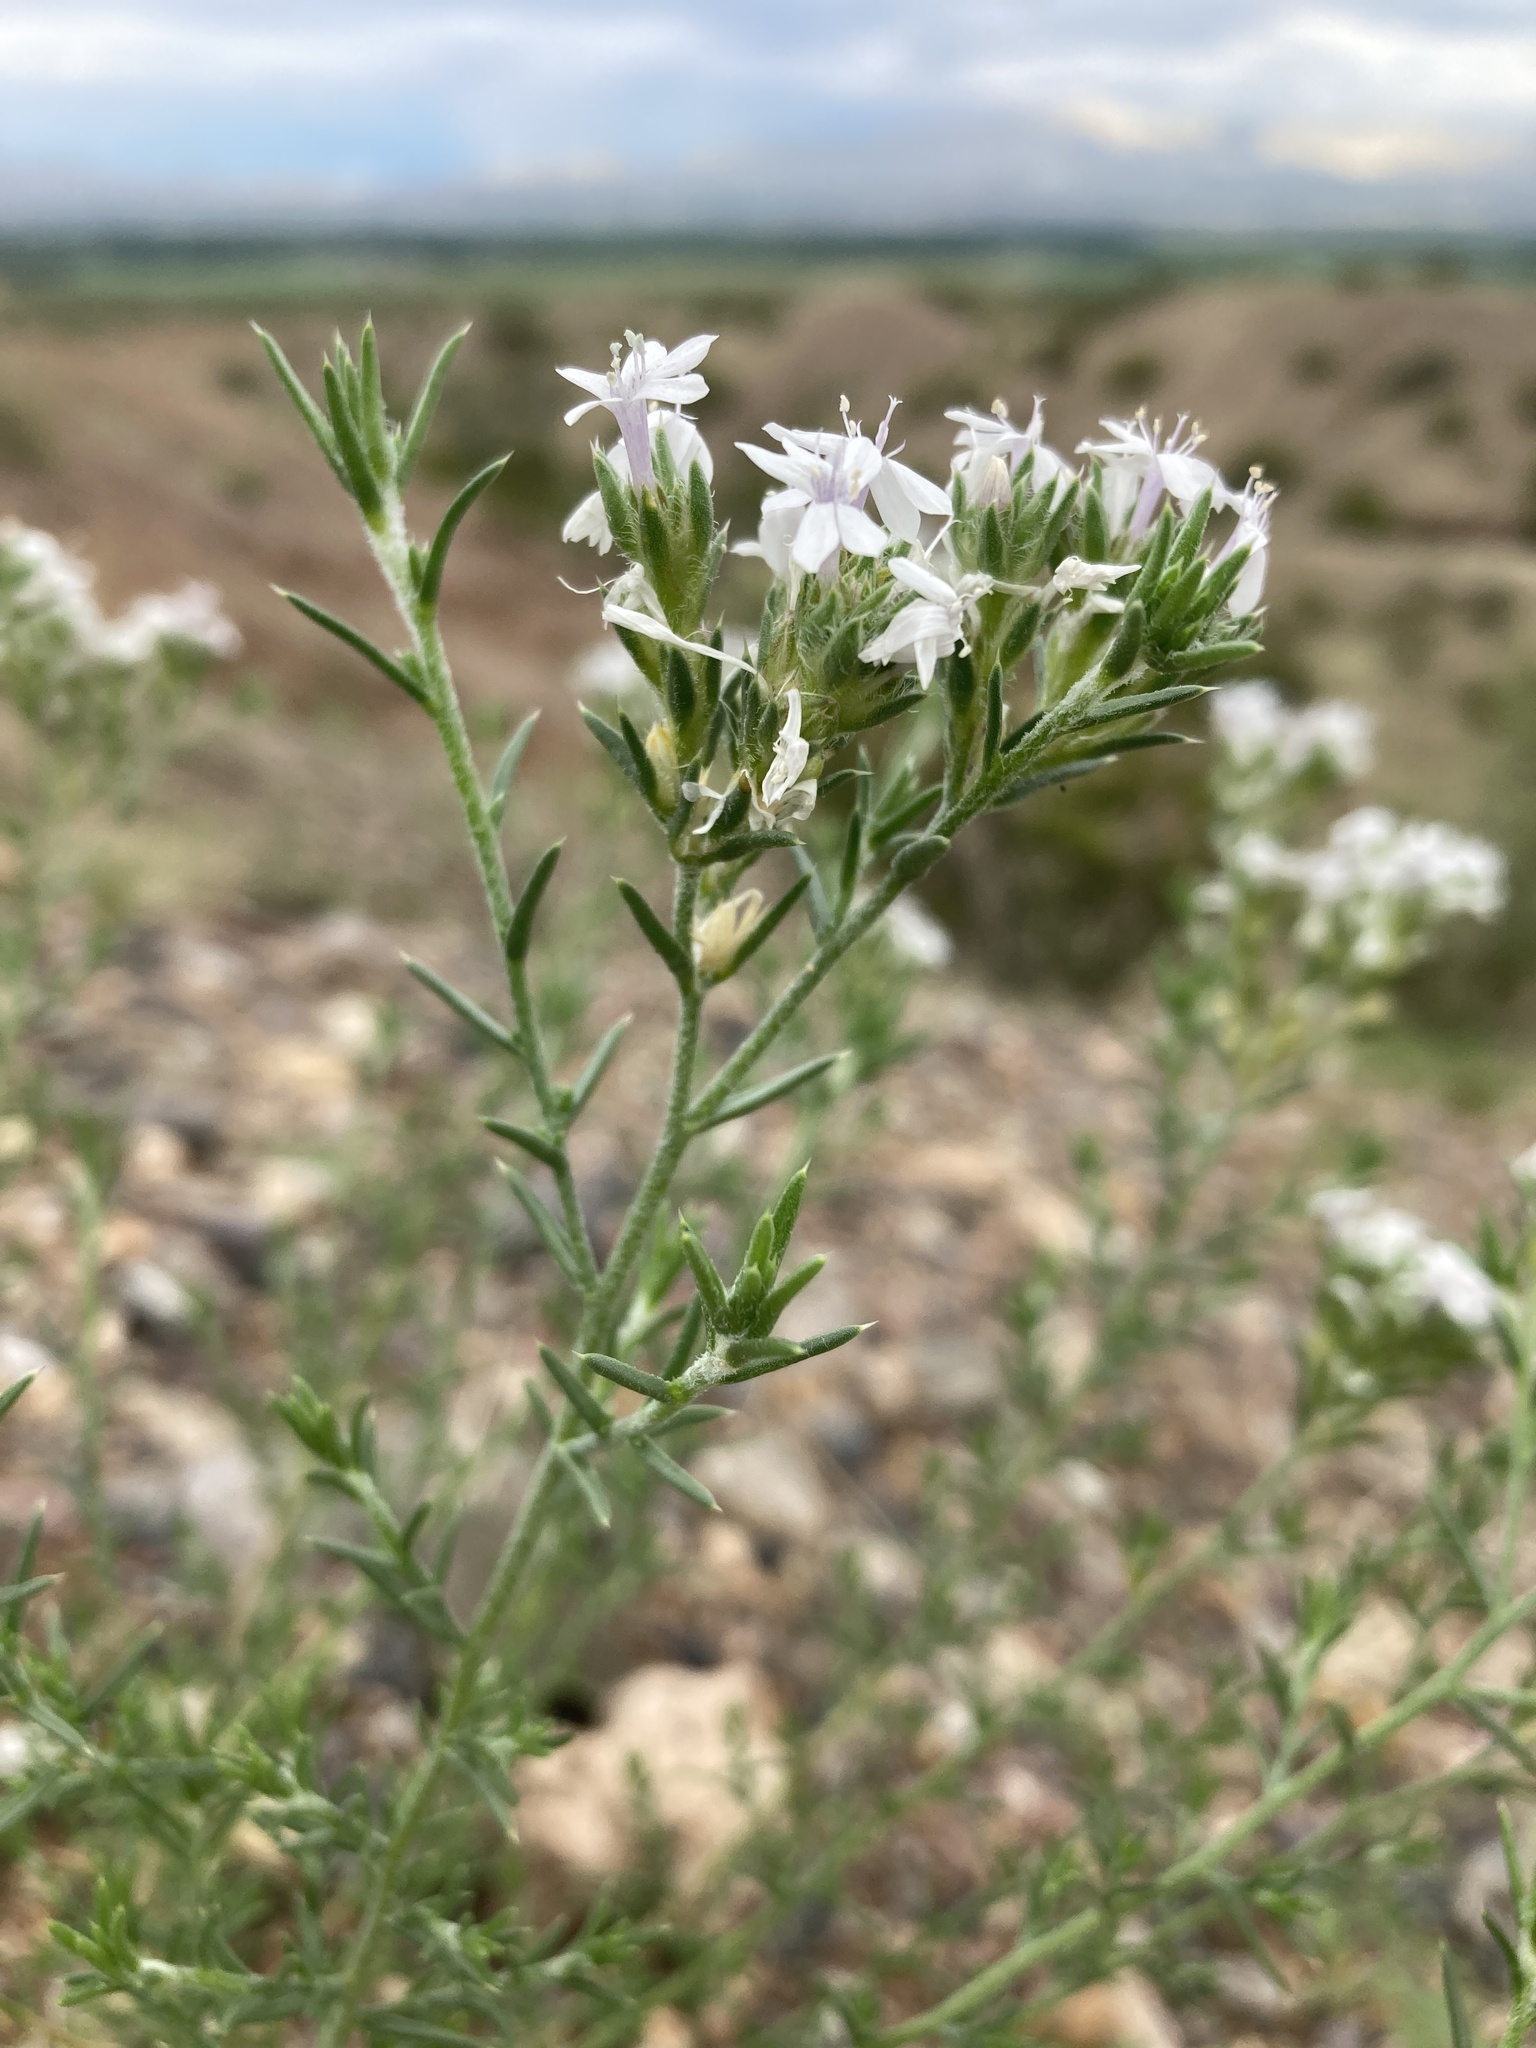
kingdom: Plantae
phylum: Tracheophyta
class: Magnoliopsida
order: Ericales
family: Polemoniaceae
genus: Ipomopsis
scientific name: Ipomopsis wrightii
